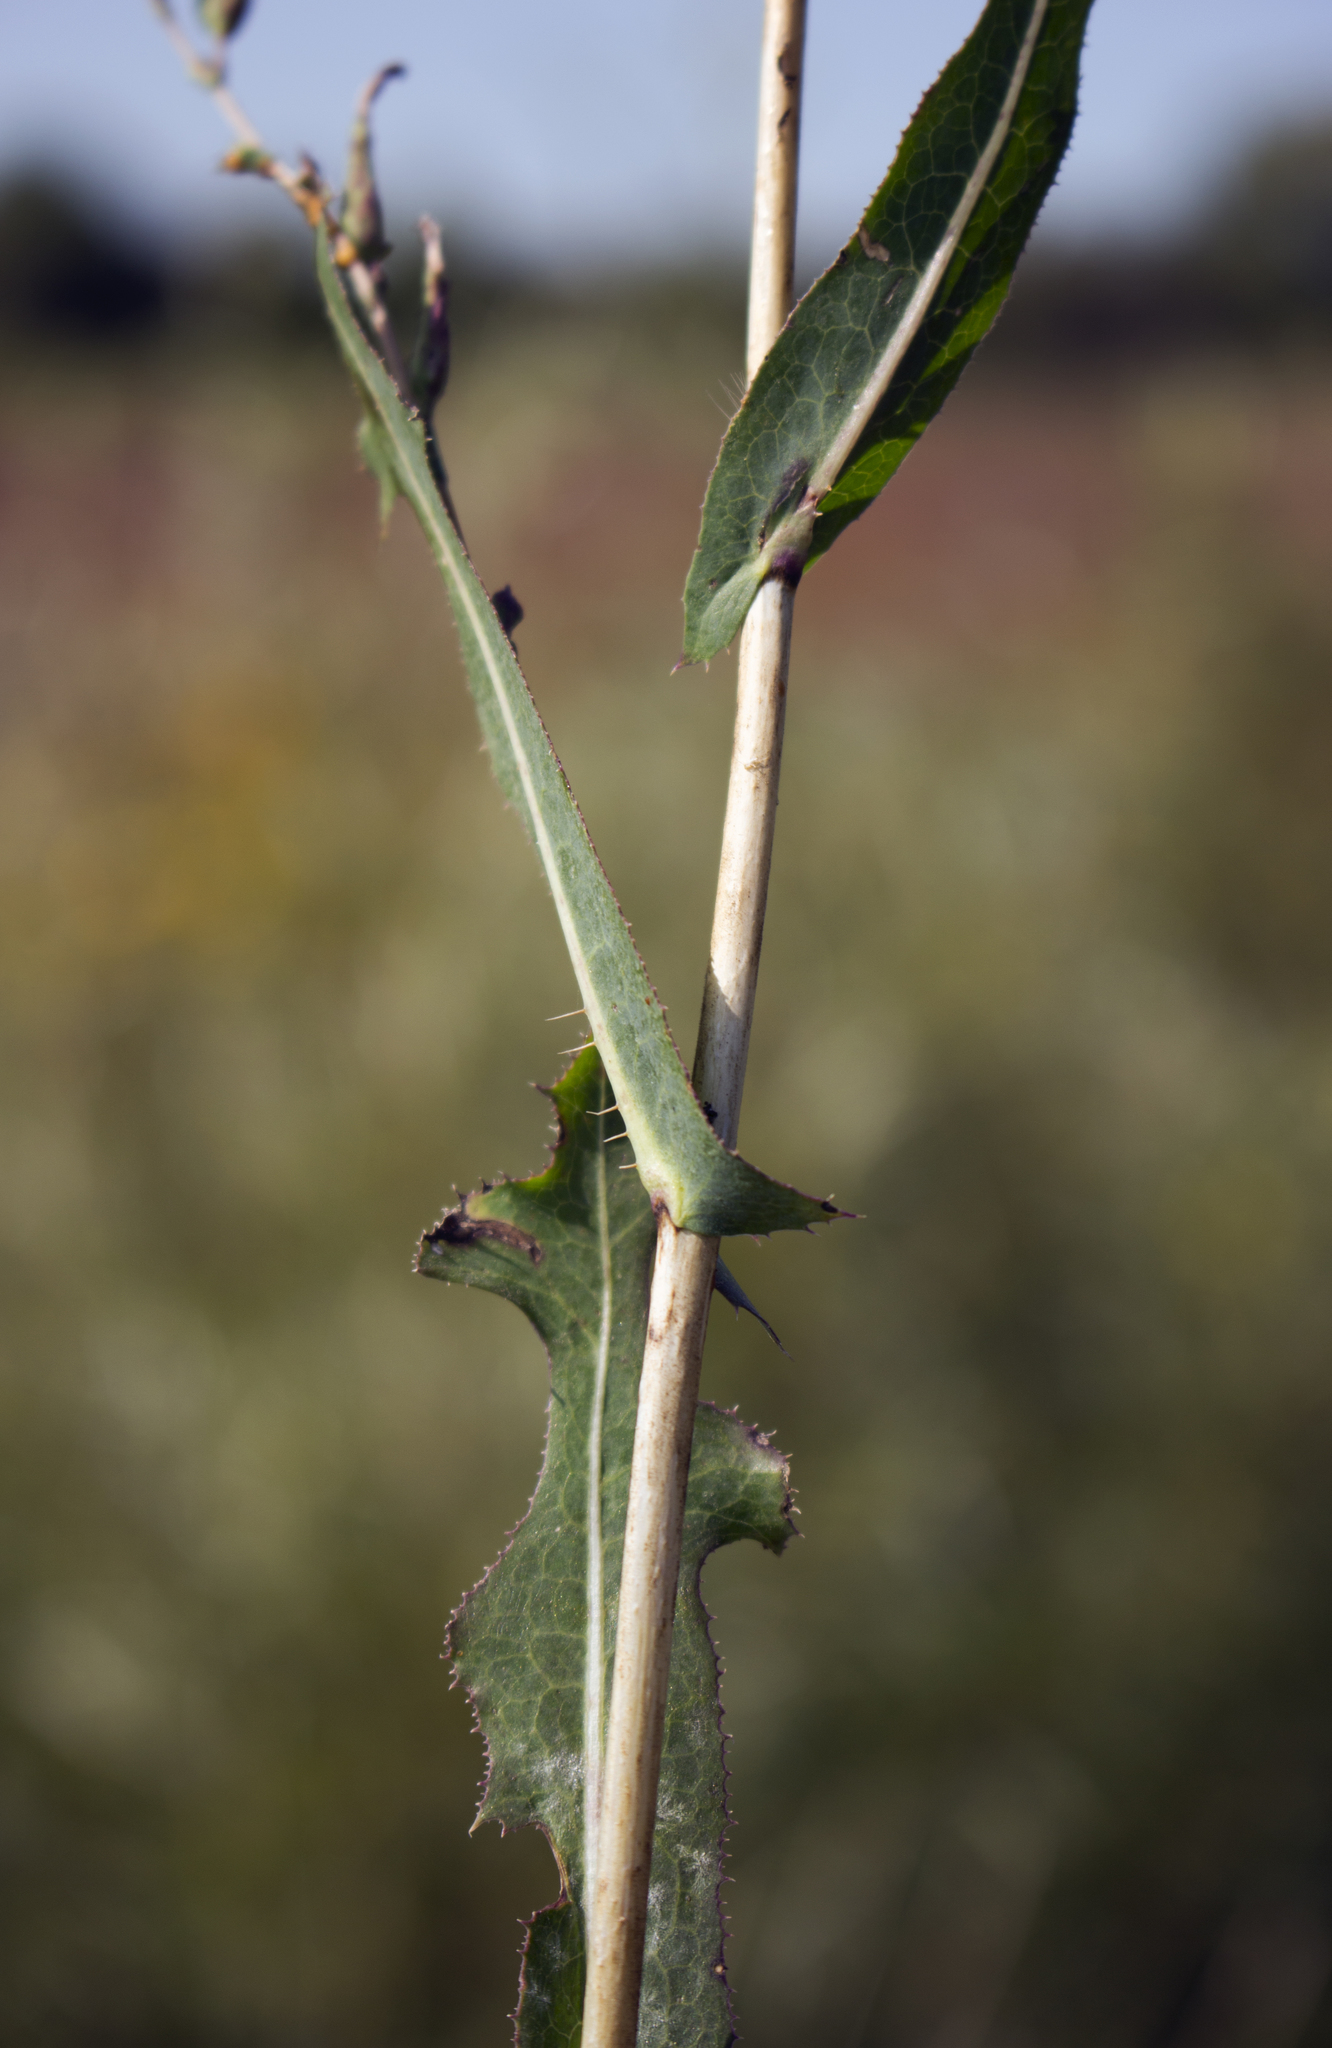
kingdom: Plantae
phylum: Tracheophyta
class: Magnoliopsida
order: Asterales
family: Asteraceae
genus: Lactuca
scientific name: Lactuca serriola
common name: Prickly lettuce
